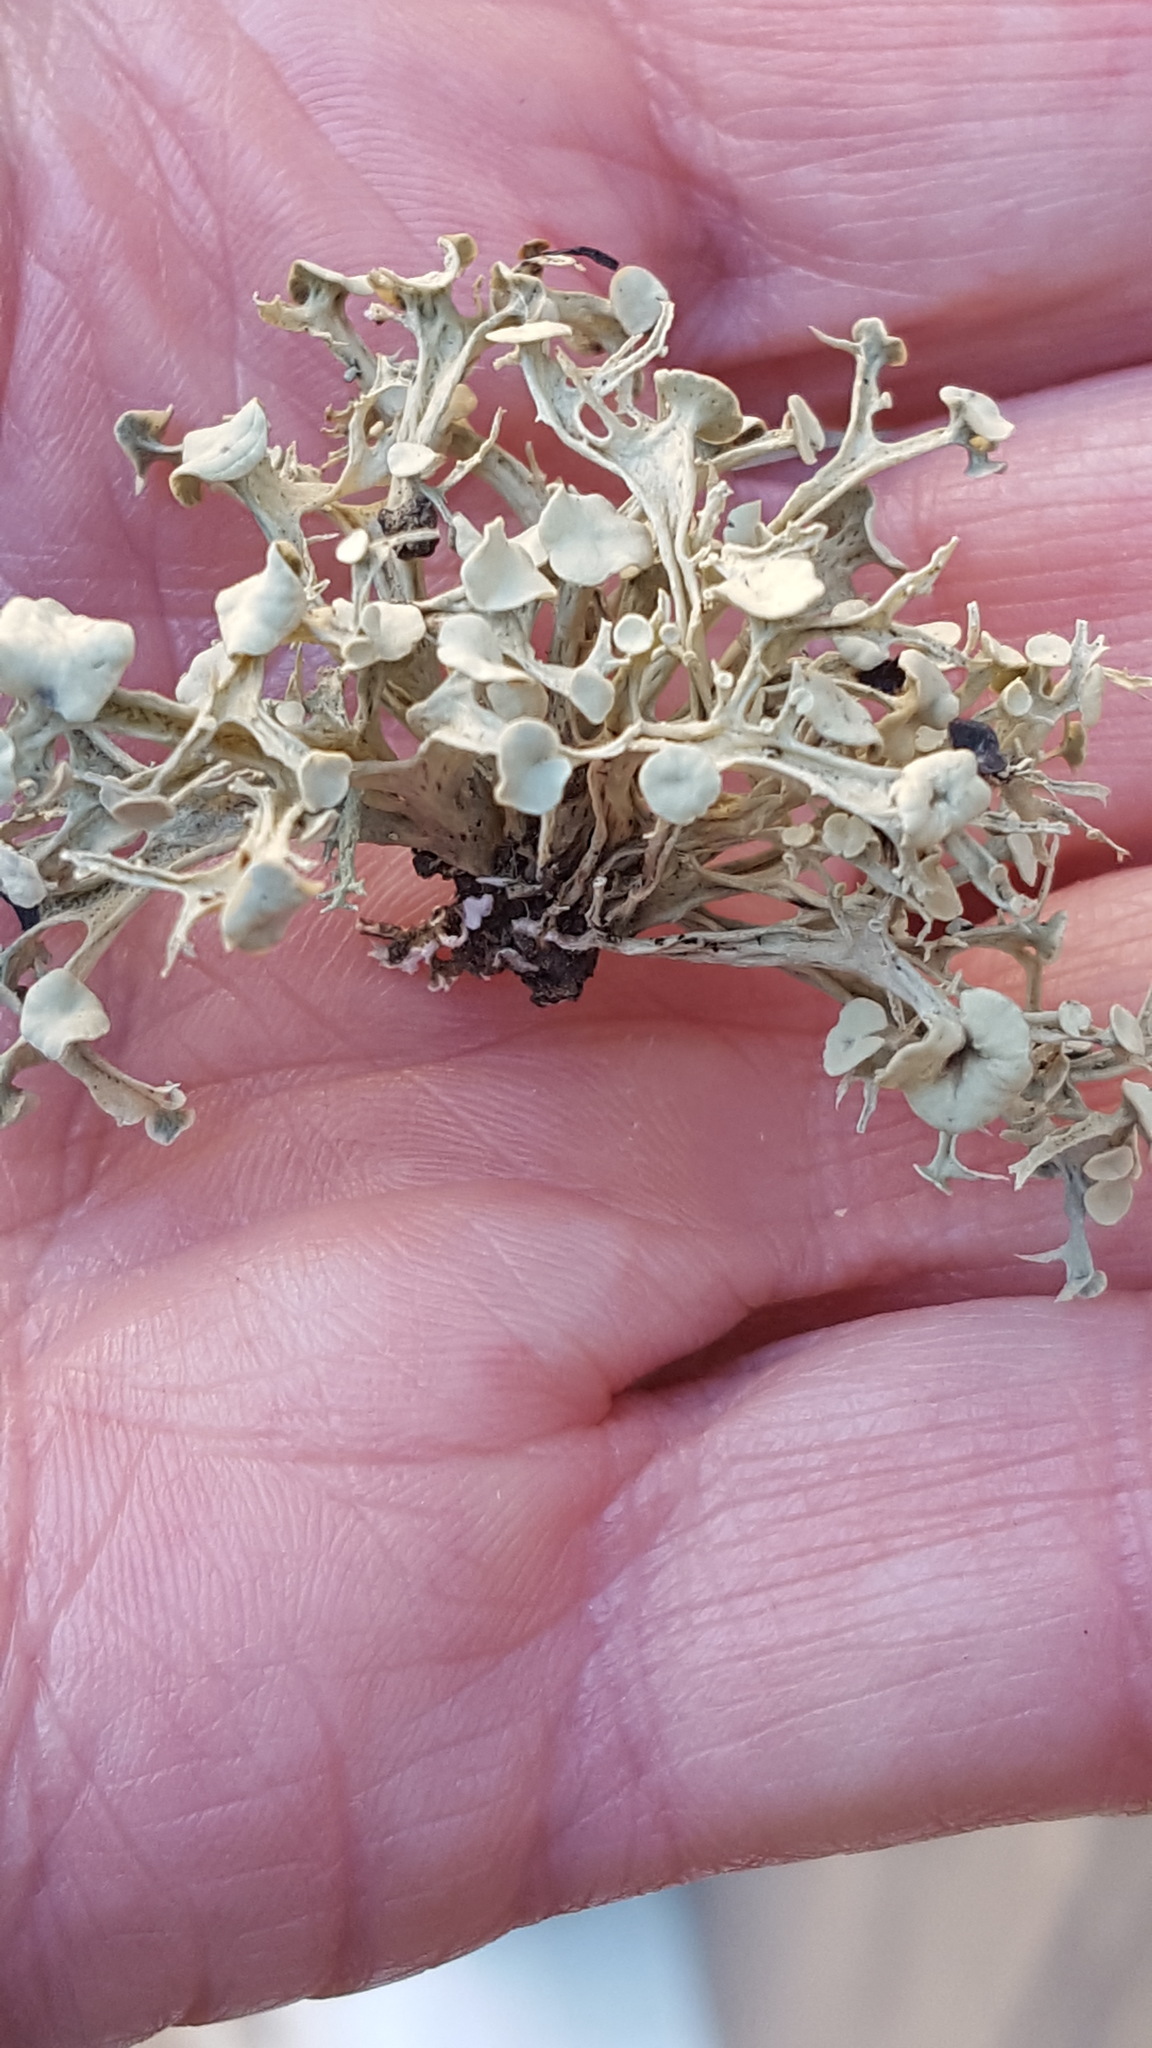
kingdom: Fungi
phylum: Ascomycota
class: Lecanoromycetes
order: Lecanorales
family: Ramalinaceae
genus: Ramalina
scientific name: Ramalina americana
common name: Sinewed bush lichen
